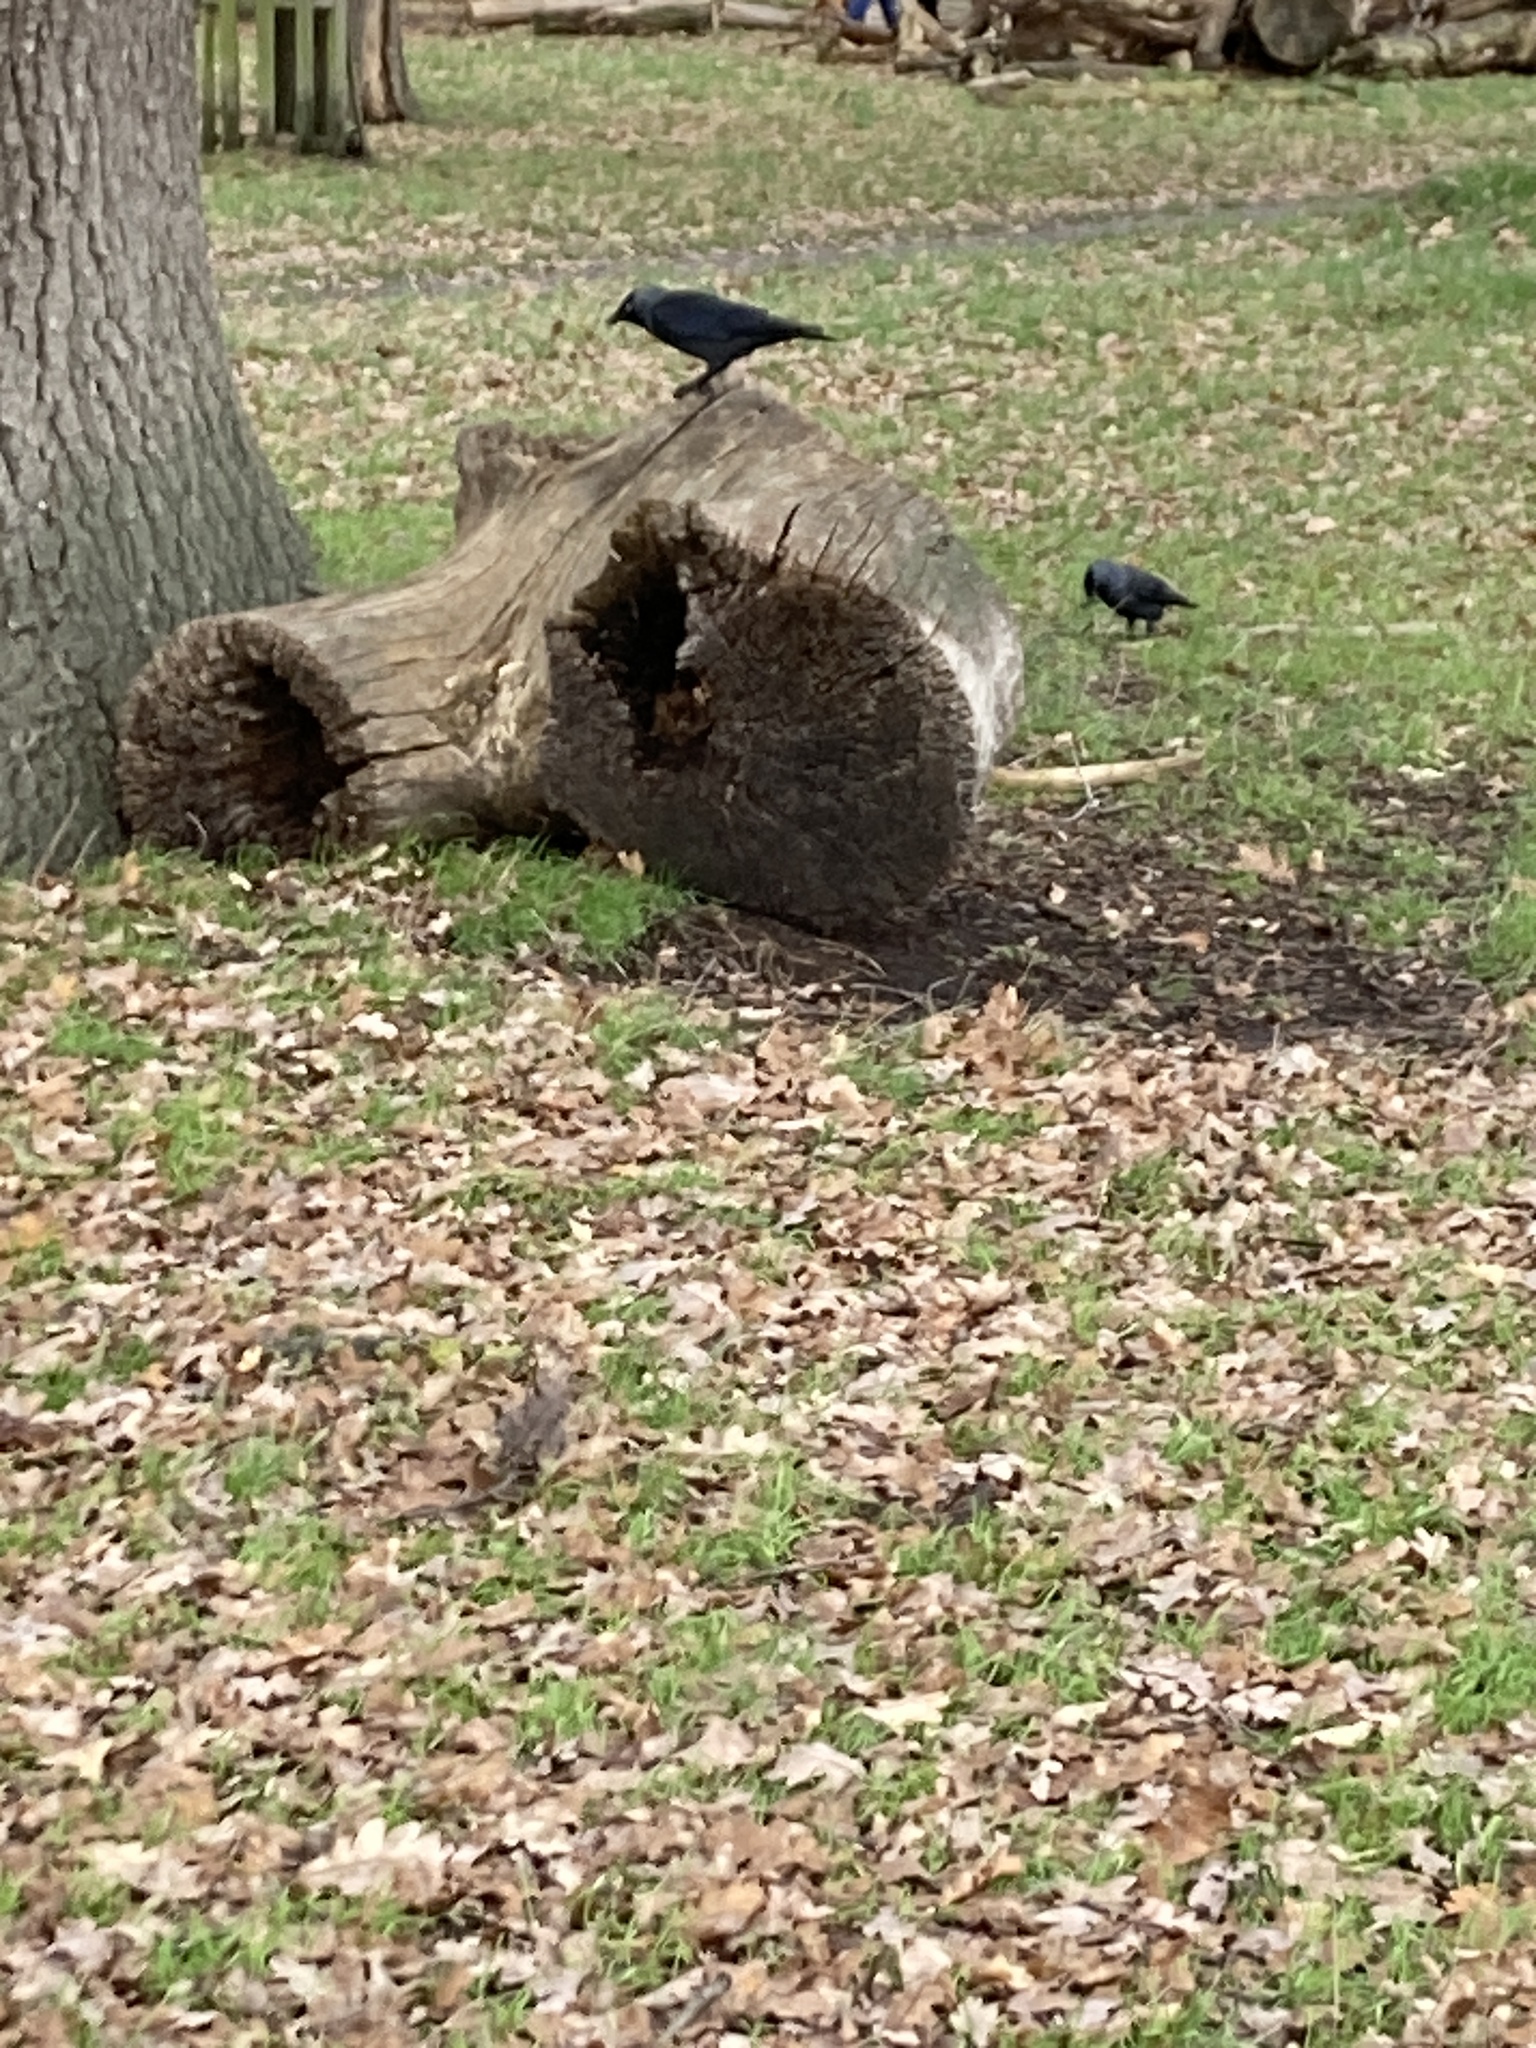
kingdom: Animalia
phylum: Chordata
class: Aves
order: Passeriformes
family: Corvidae
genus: Coloeus
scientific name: Coloeus monedula
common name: Western jackdaw
